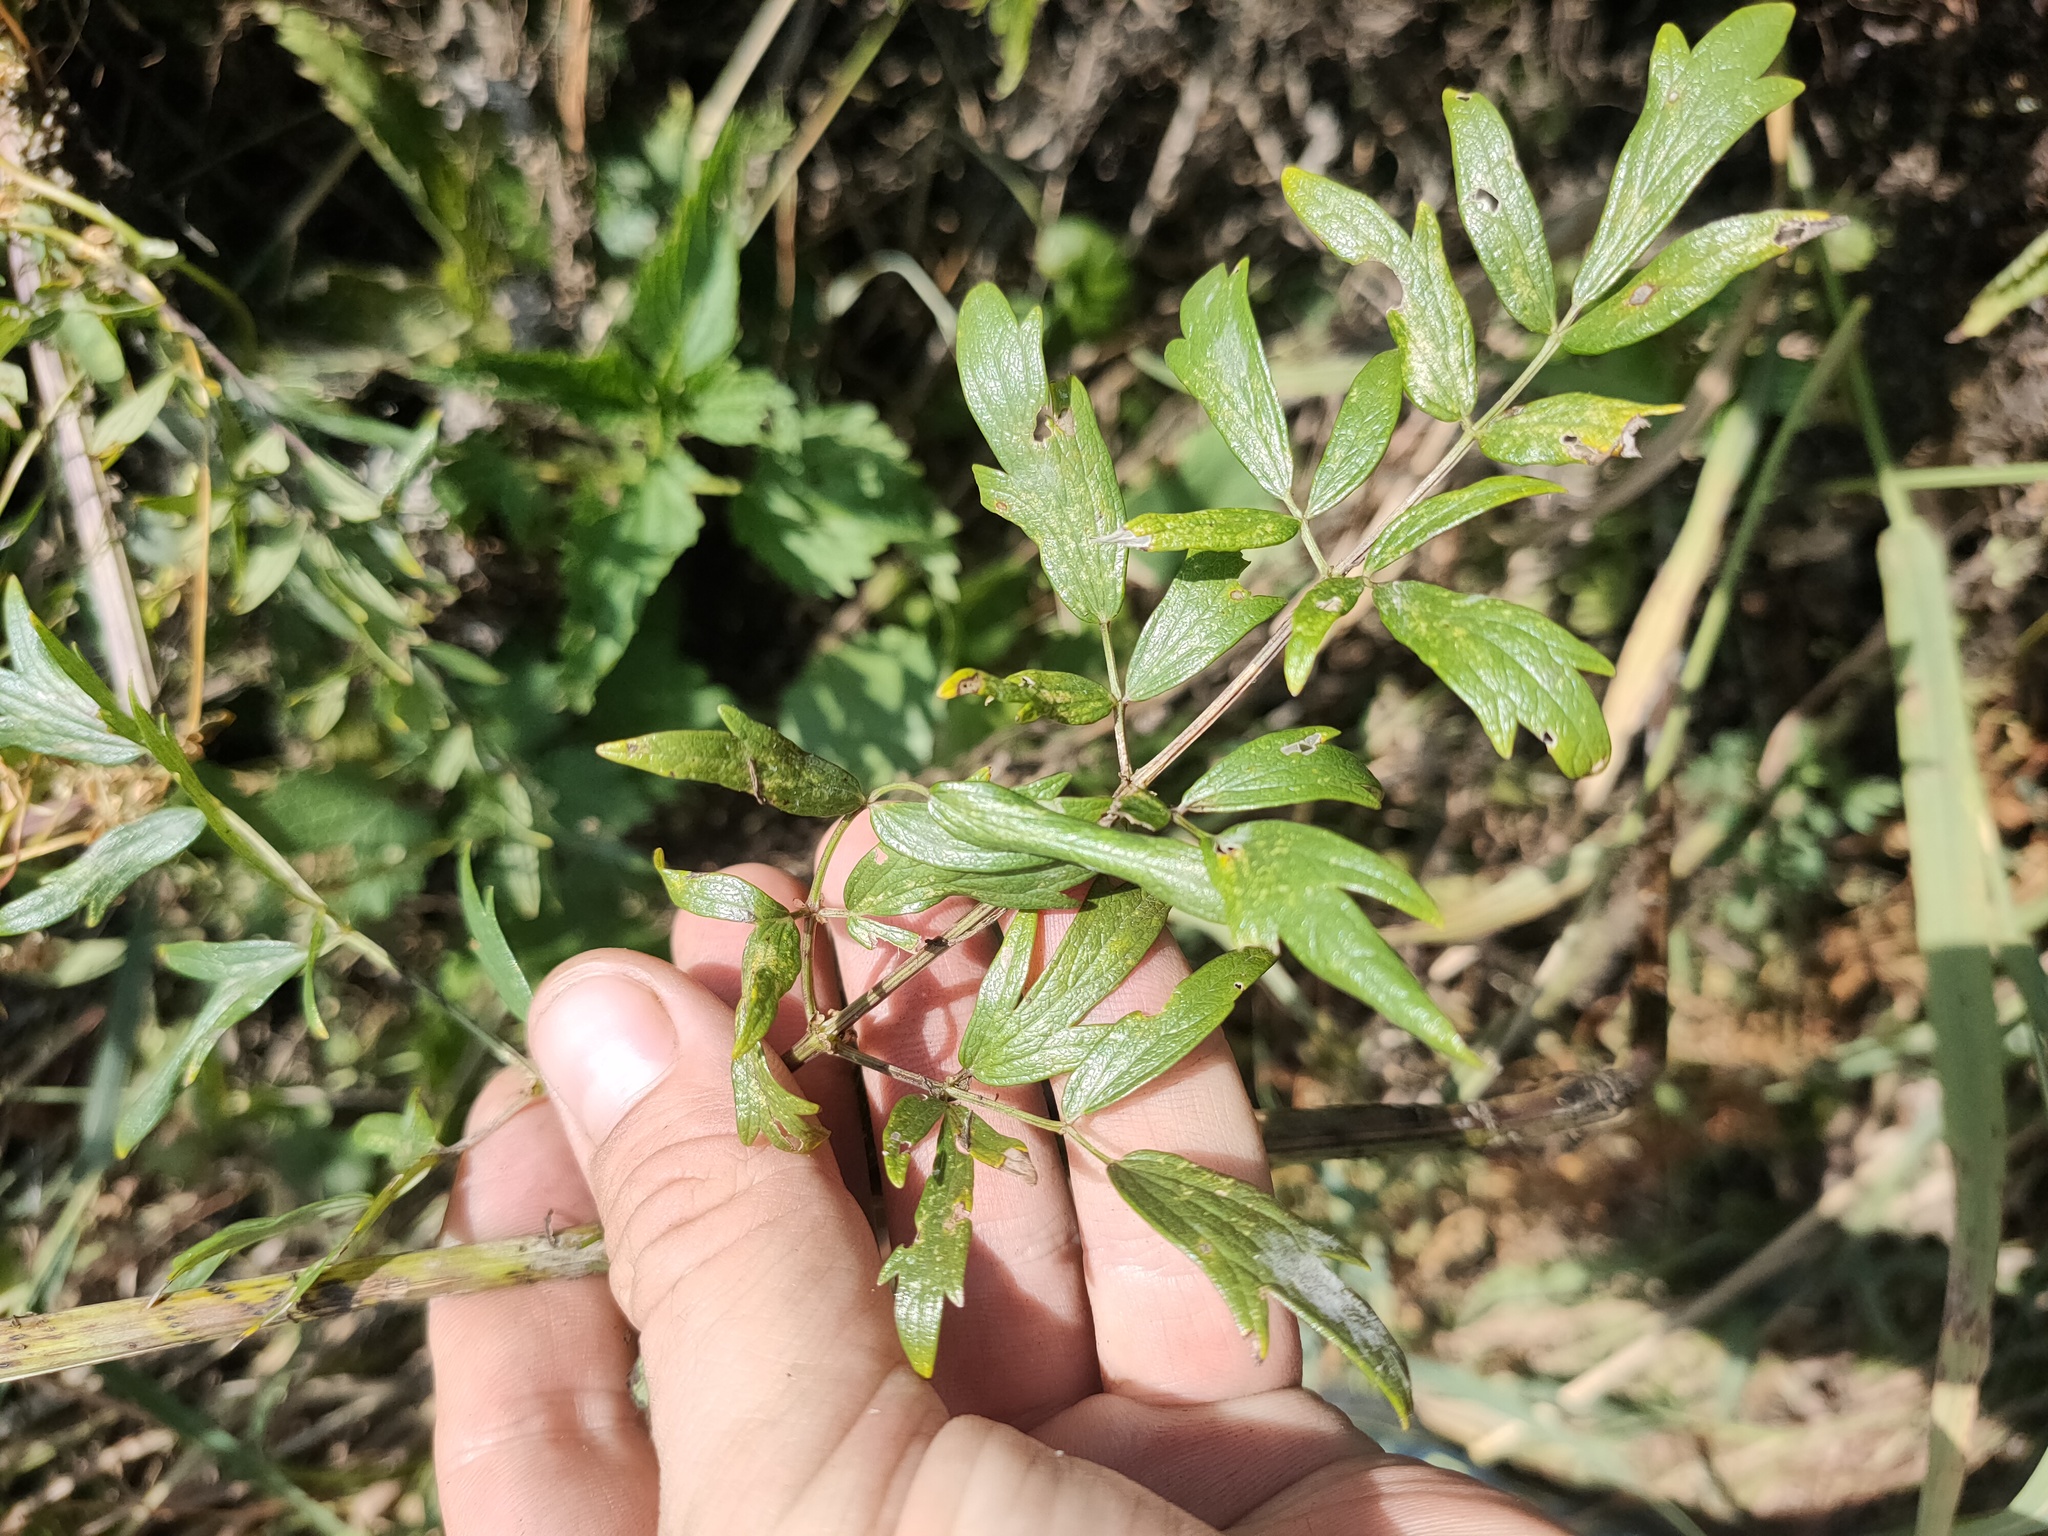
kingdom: Plantae
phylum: Tracheophyta
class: Magnoliopsida
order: Ranunculales
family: Ranunculaceae
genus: Thalictrum
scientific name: Thalictrum
